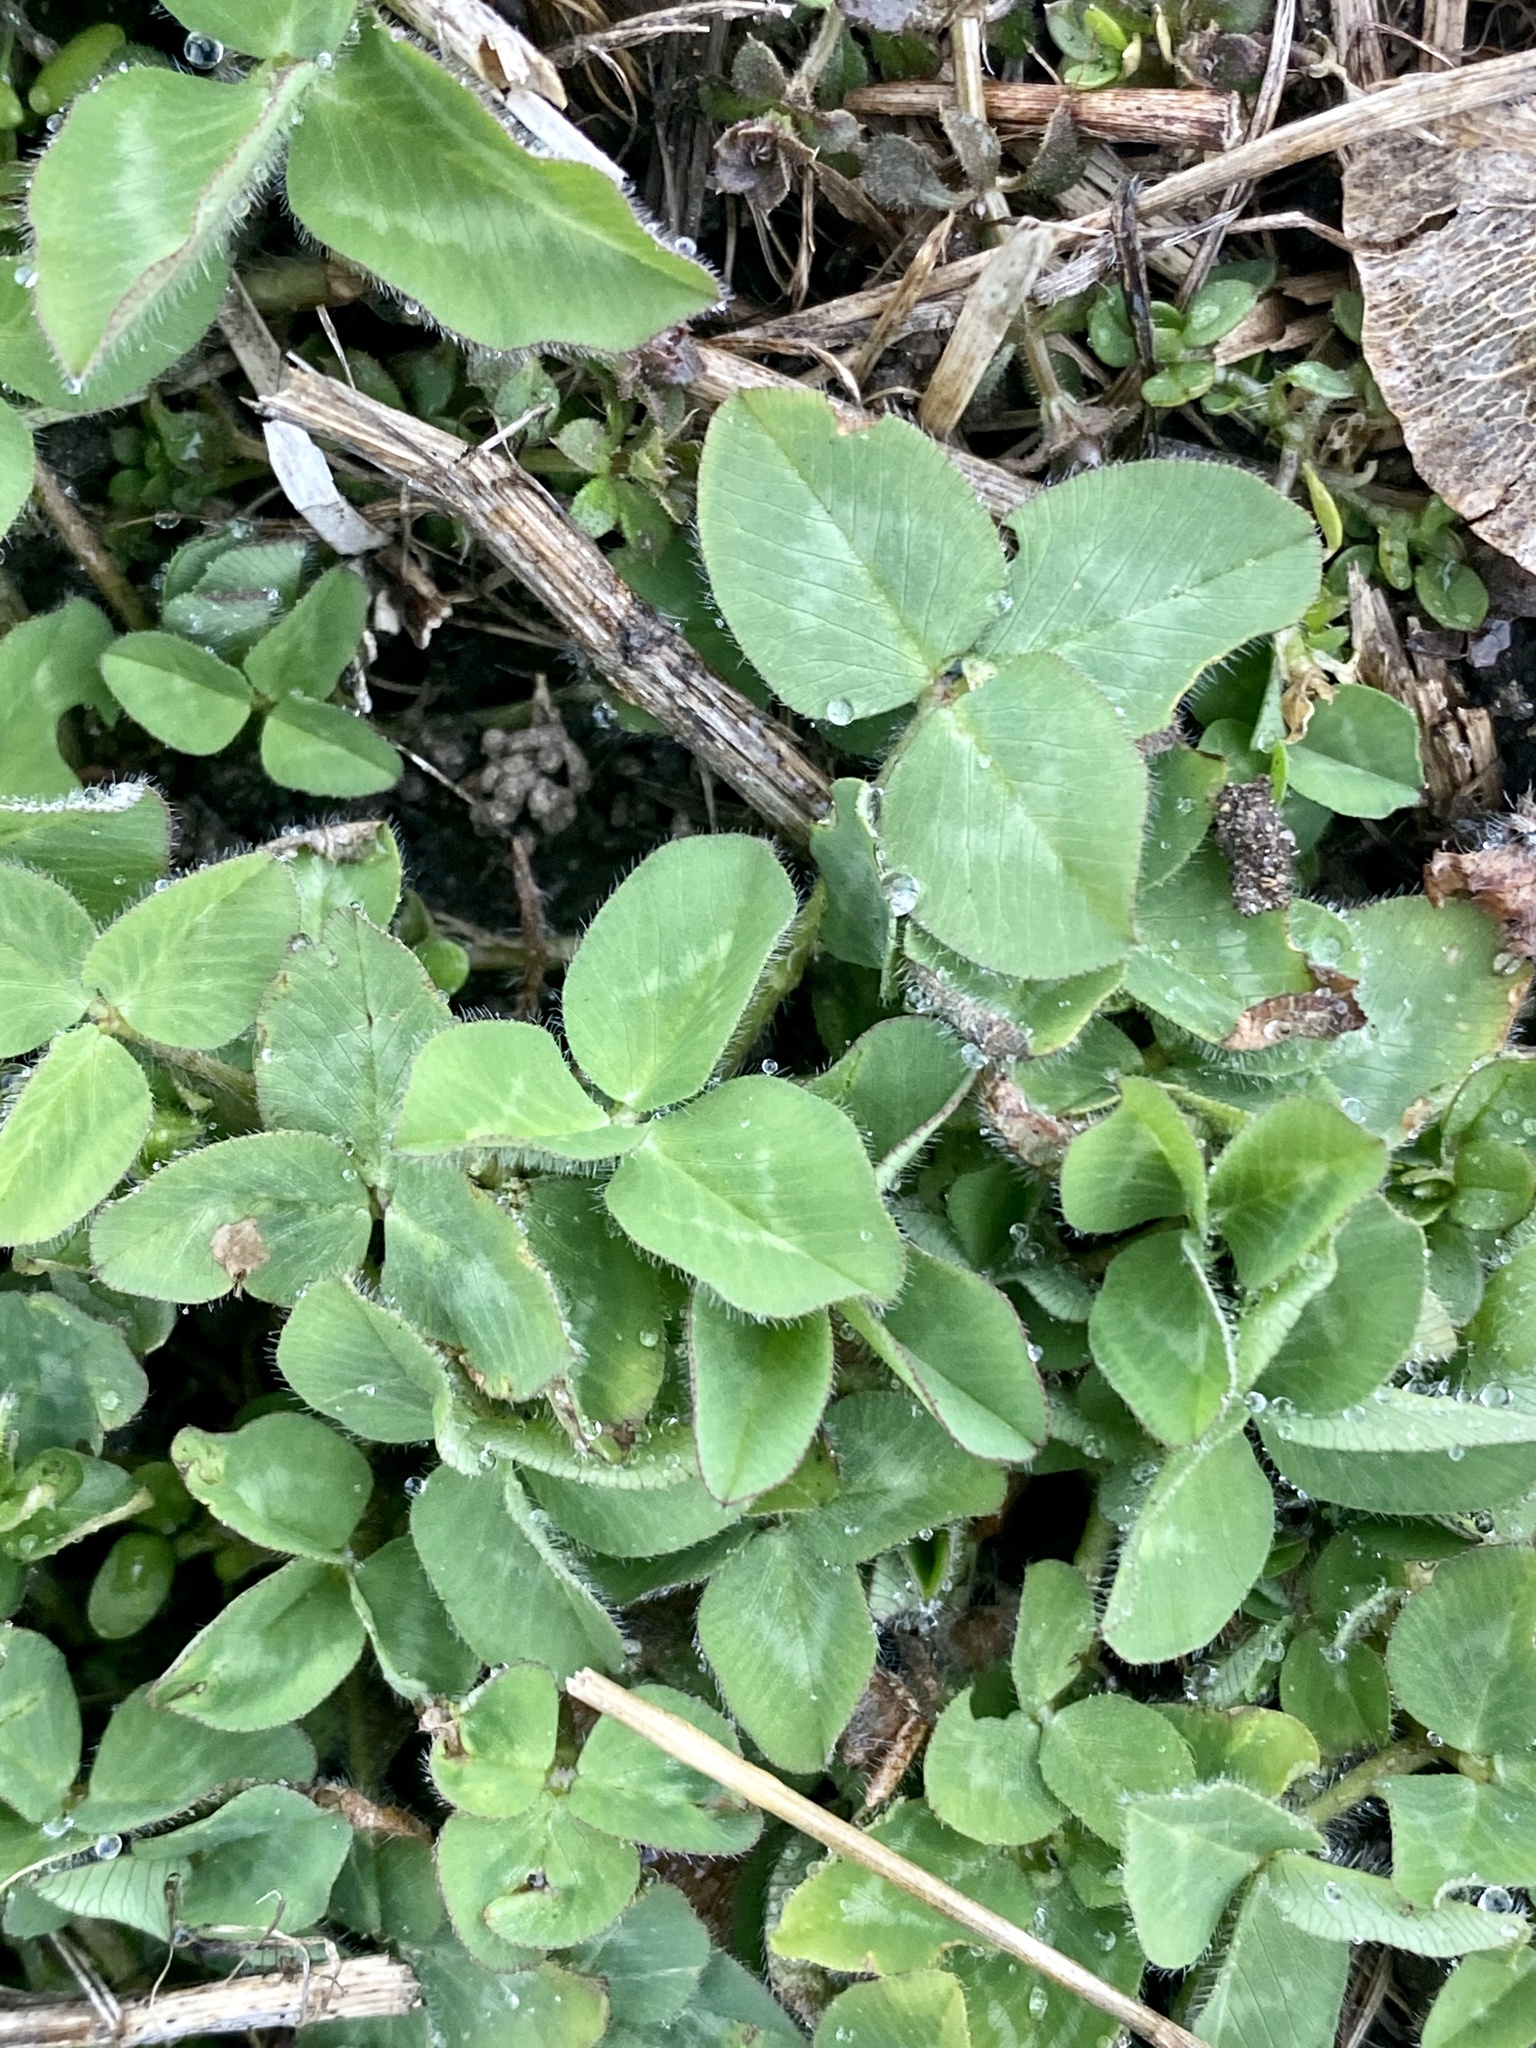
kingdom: Plantae
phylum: Tracheophyta
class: Magnoliopsida
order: Fabales
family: Fabaceae
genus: Trifolium
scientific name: Trifolium pratense
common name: Red clover
